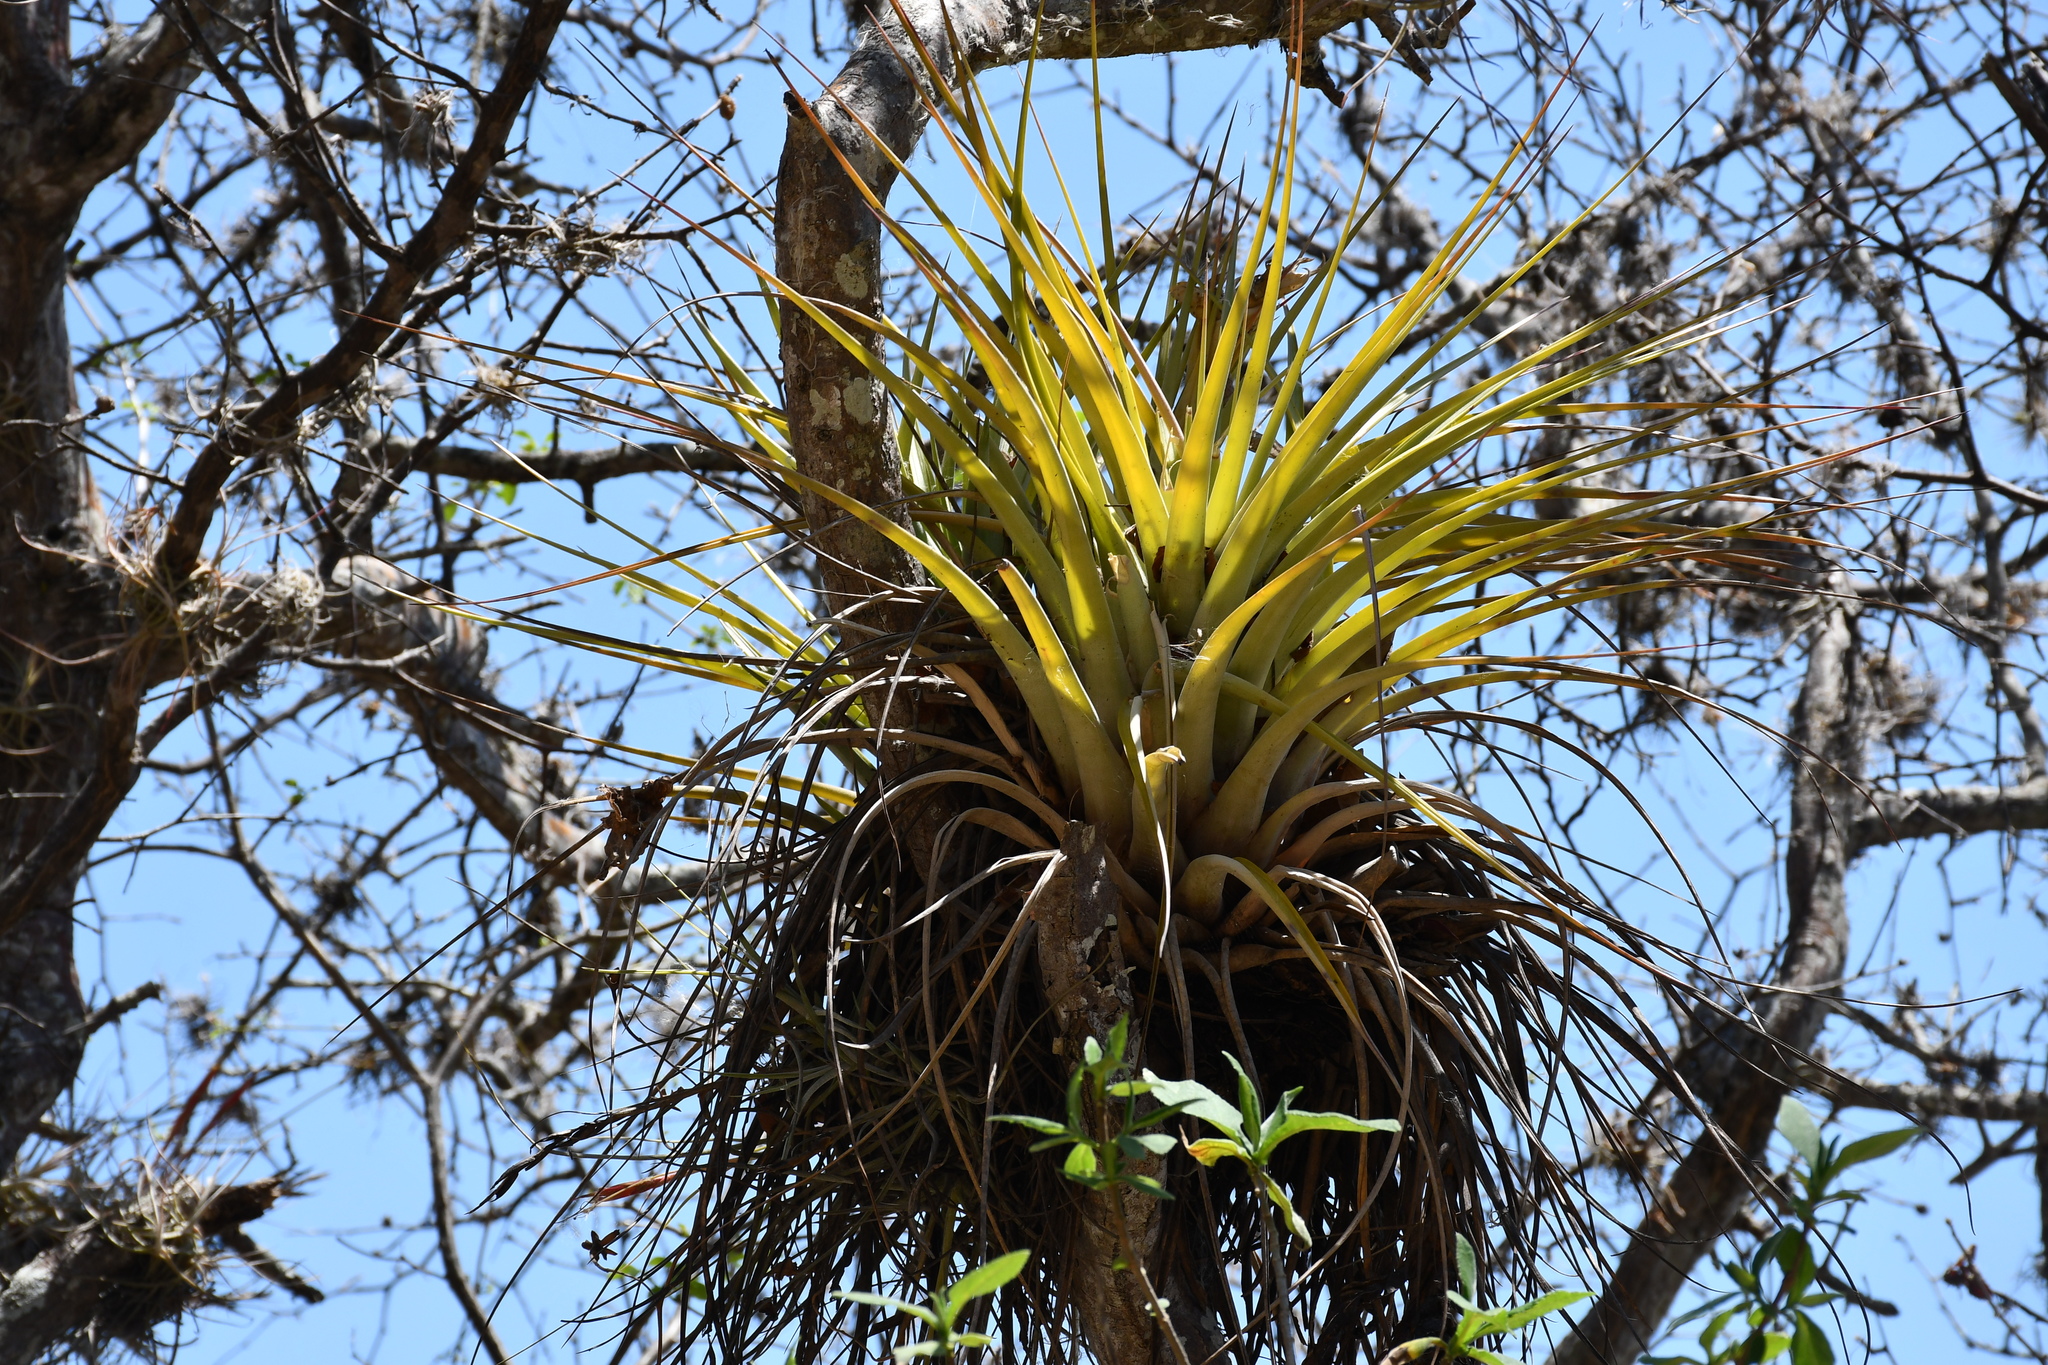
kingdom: Plantae
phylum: Tracheophyta
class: Liliopsida
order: Poales
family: Bromeliaceae
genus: Tillandsia
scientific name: Tillandsia calothyrsus
